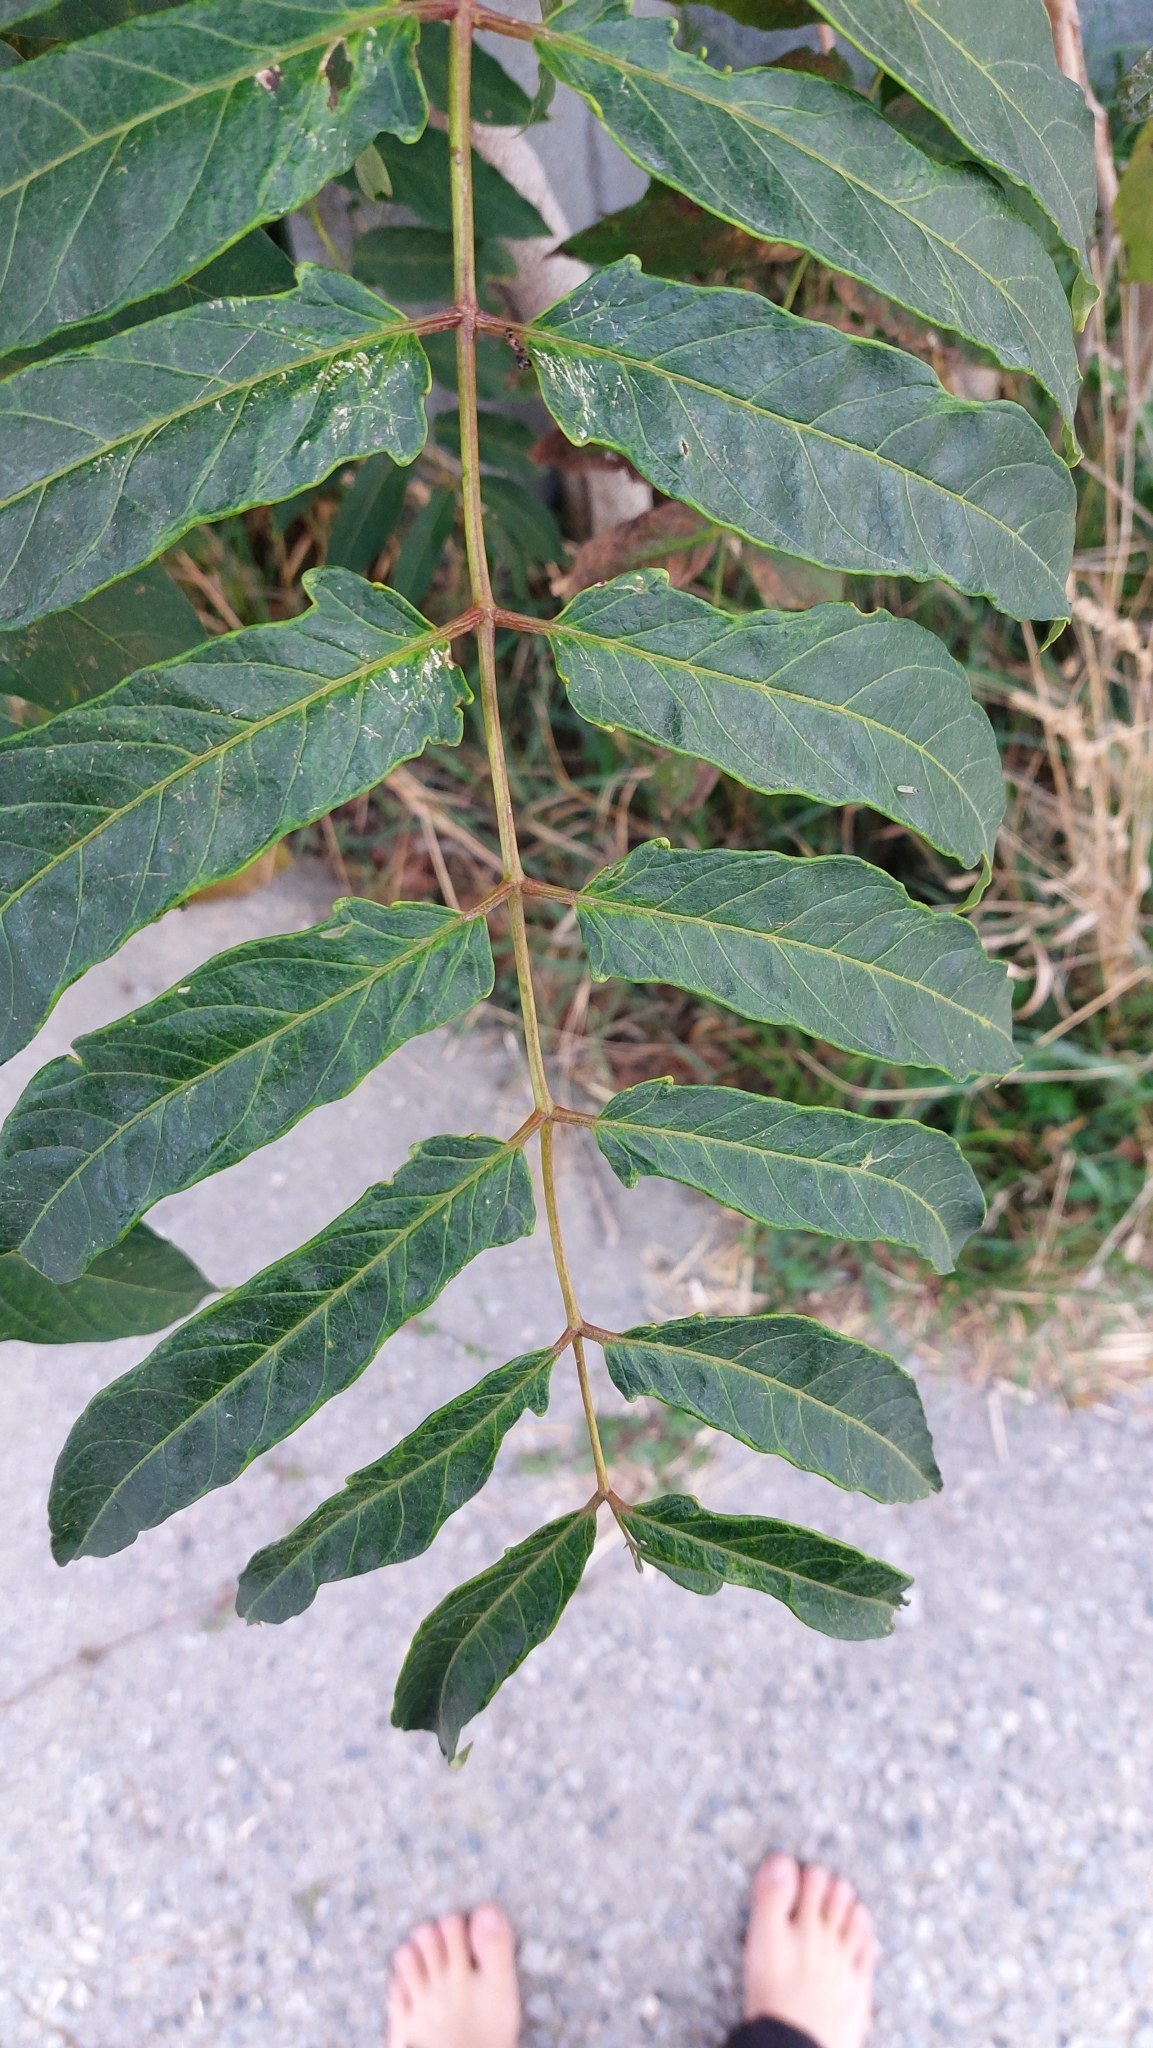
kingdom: Plantae
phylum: Tracheophyta
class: Magnoliopsida
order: Sapindales
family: Simaroubaceae
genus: Ailanthus
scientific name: Ailanthus altissima
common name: Tree-of-heaven
